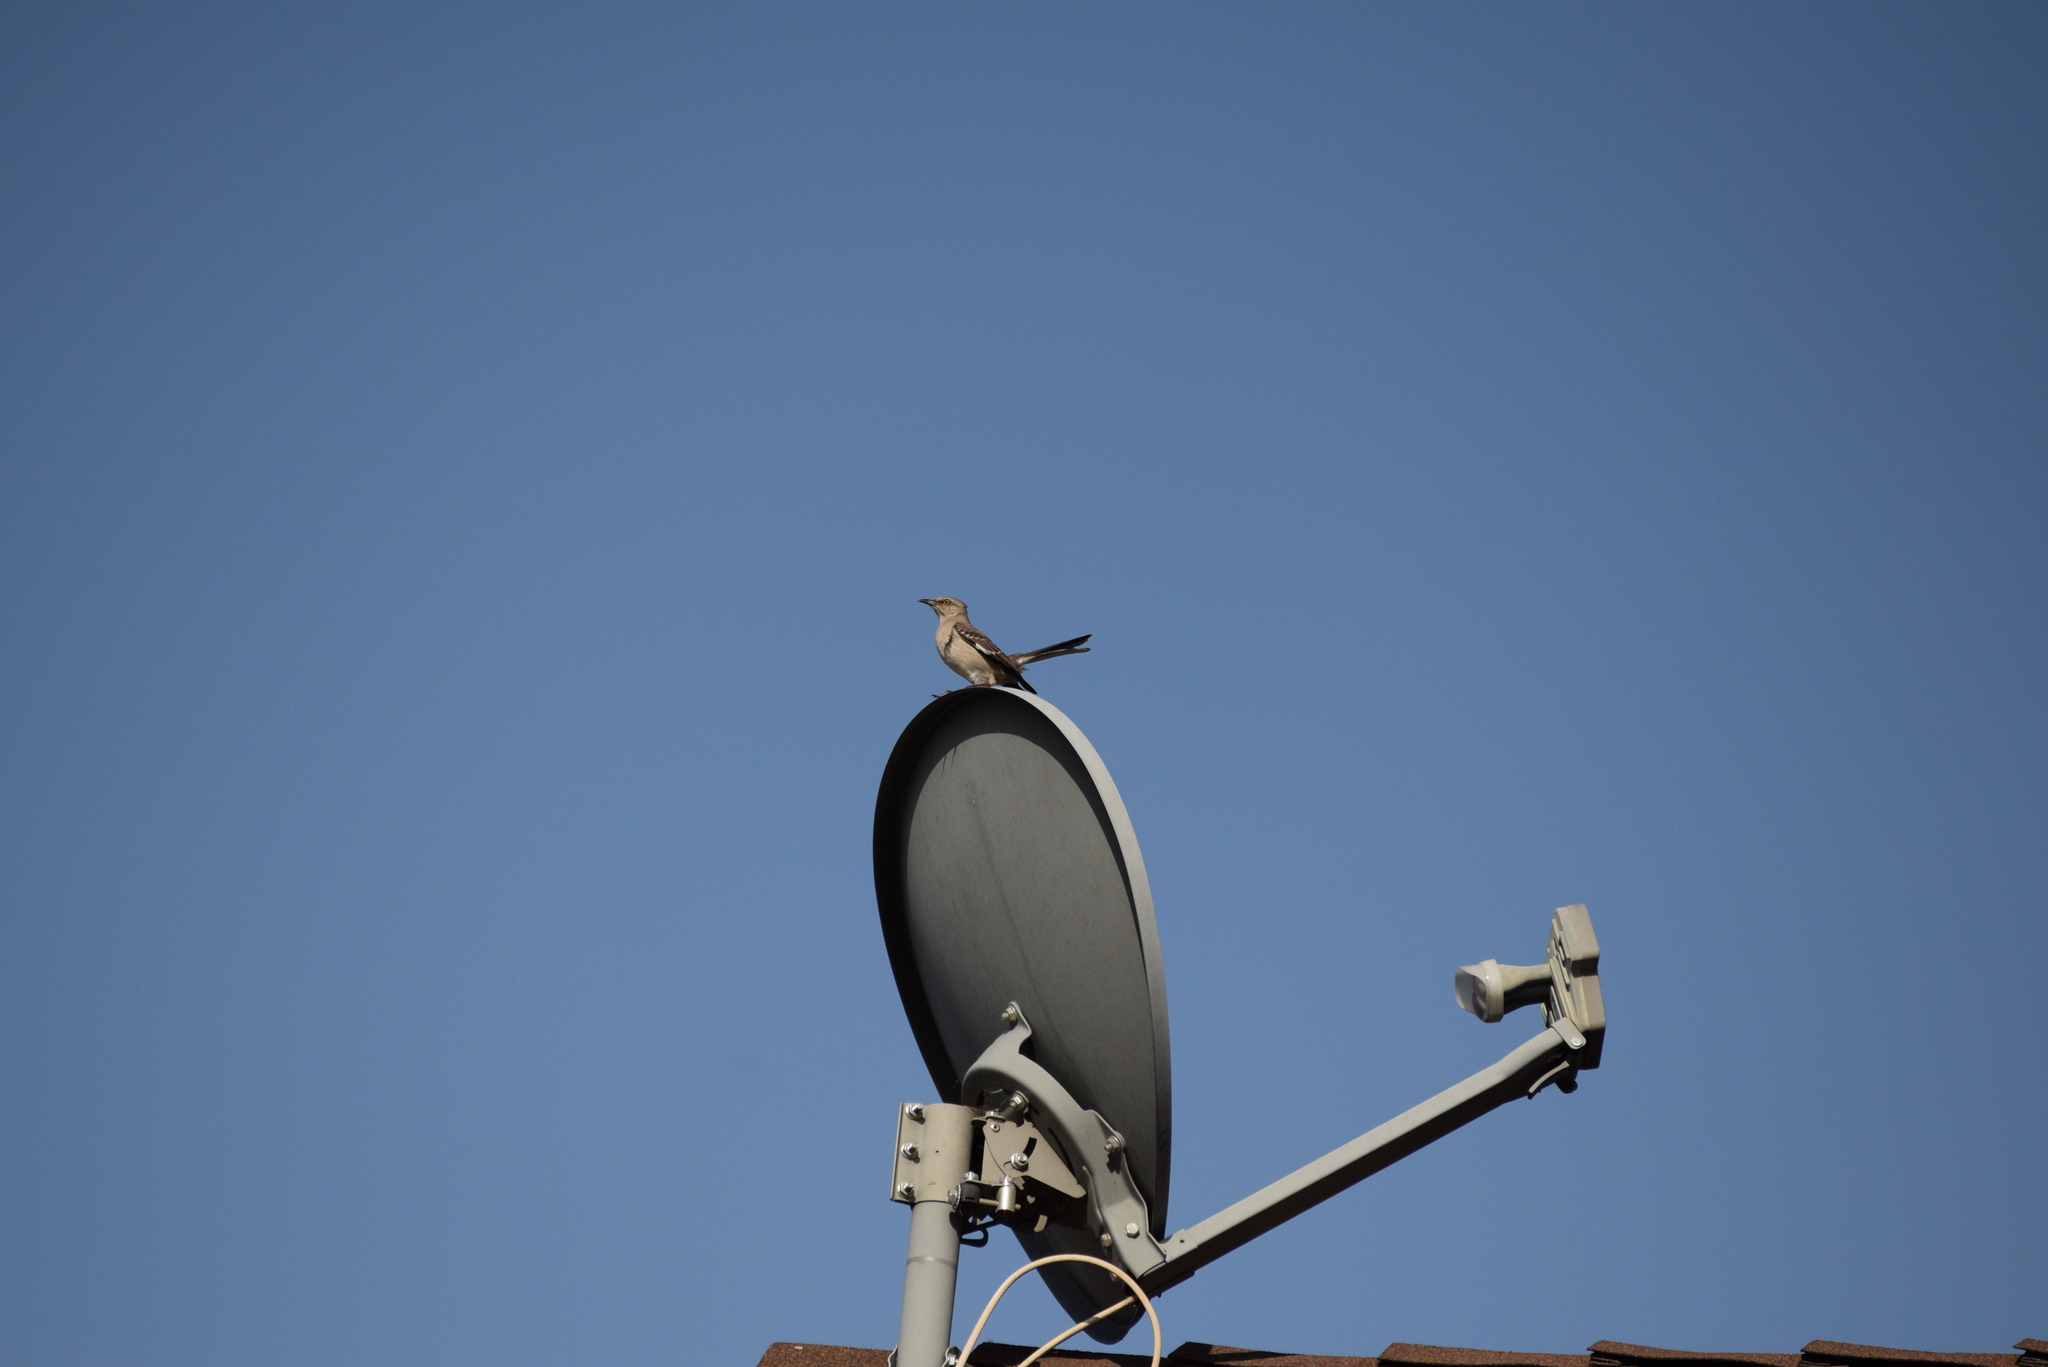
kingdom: Animalia
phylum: Chordata
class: Aves
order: Passeriformes
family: Mimidae
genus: Mimus
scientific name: Mimus polyglottos
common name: Northern mockingbird
